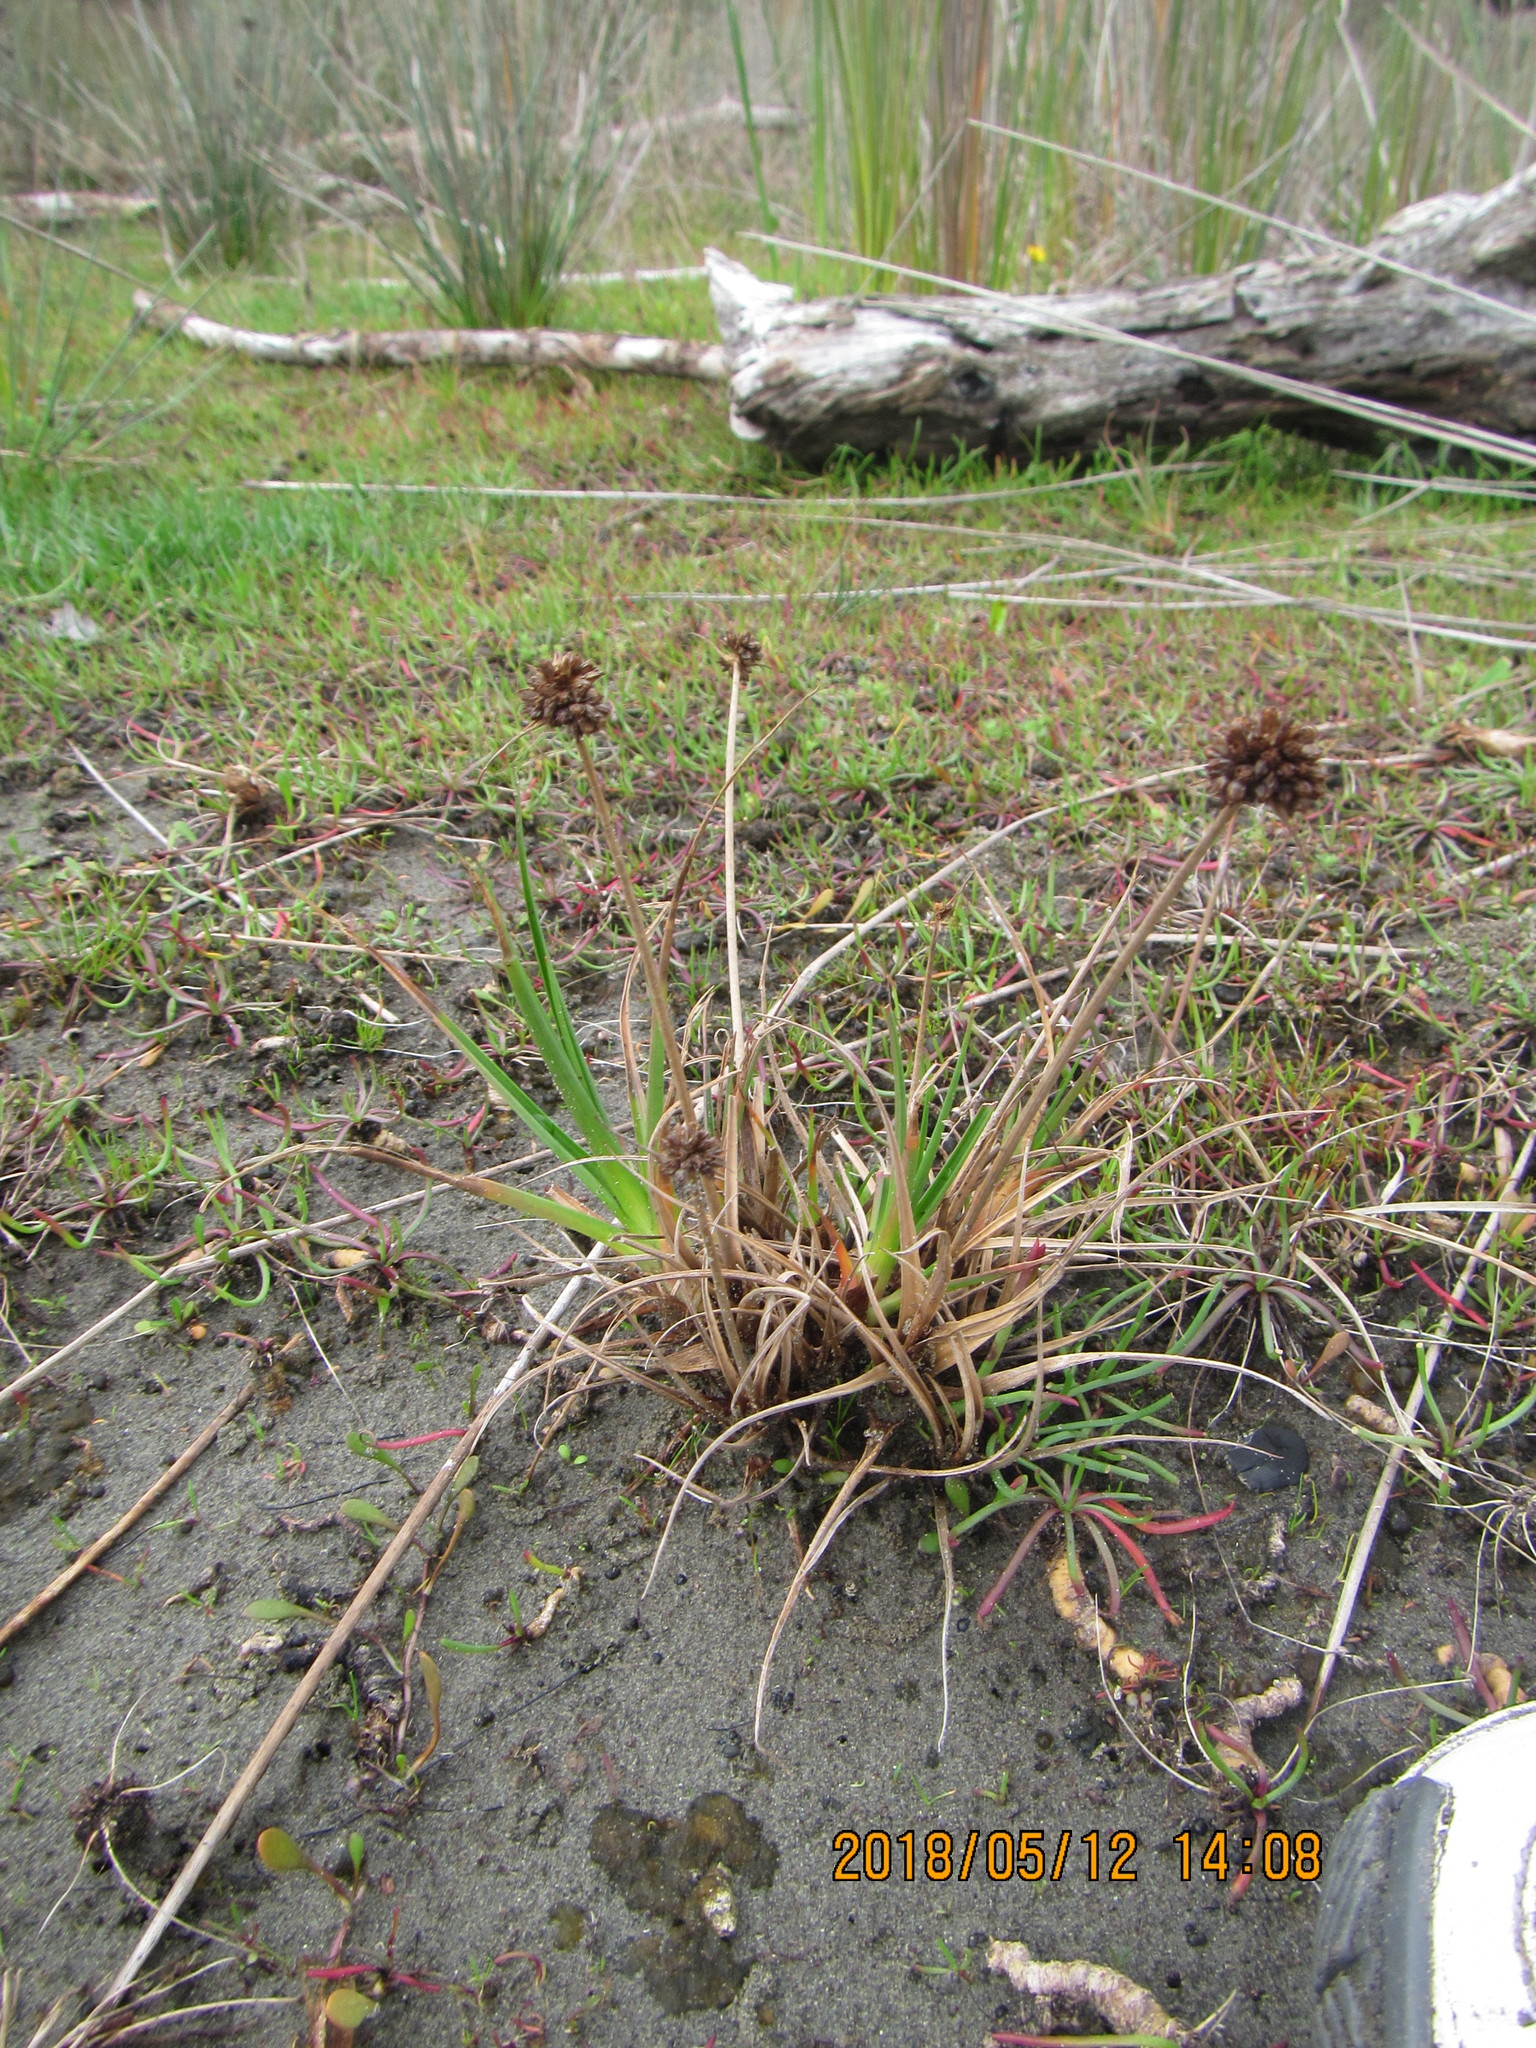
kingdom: Plantae
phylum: Tracheophyta
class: Liliopsida
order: Poales
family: Juncaceae
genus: Juncus
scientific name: Juncus caespiticius
